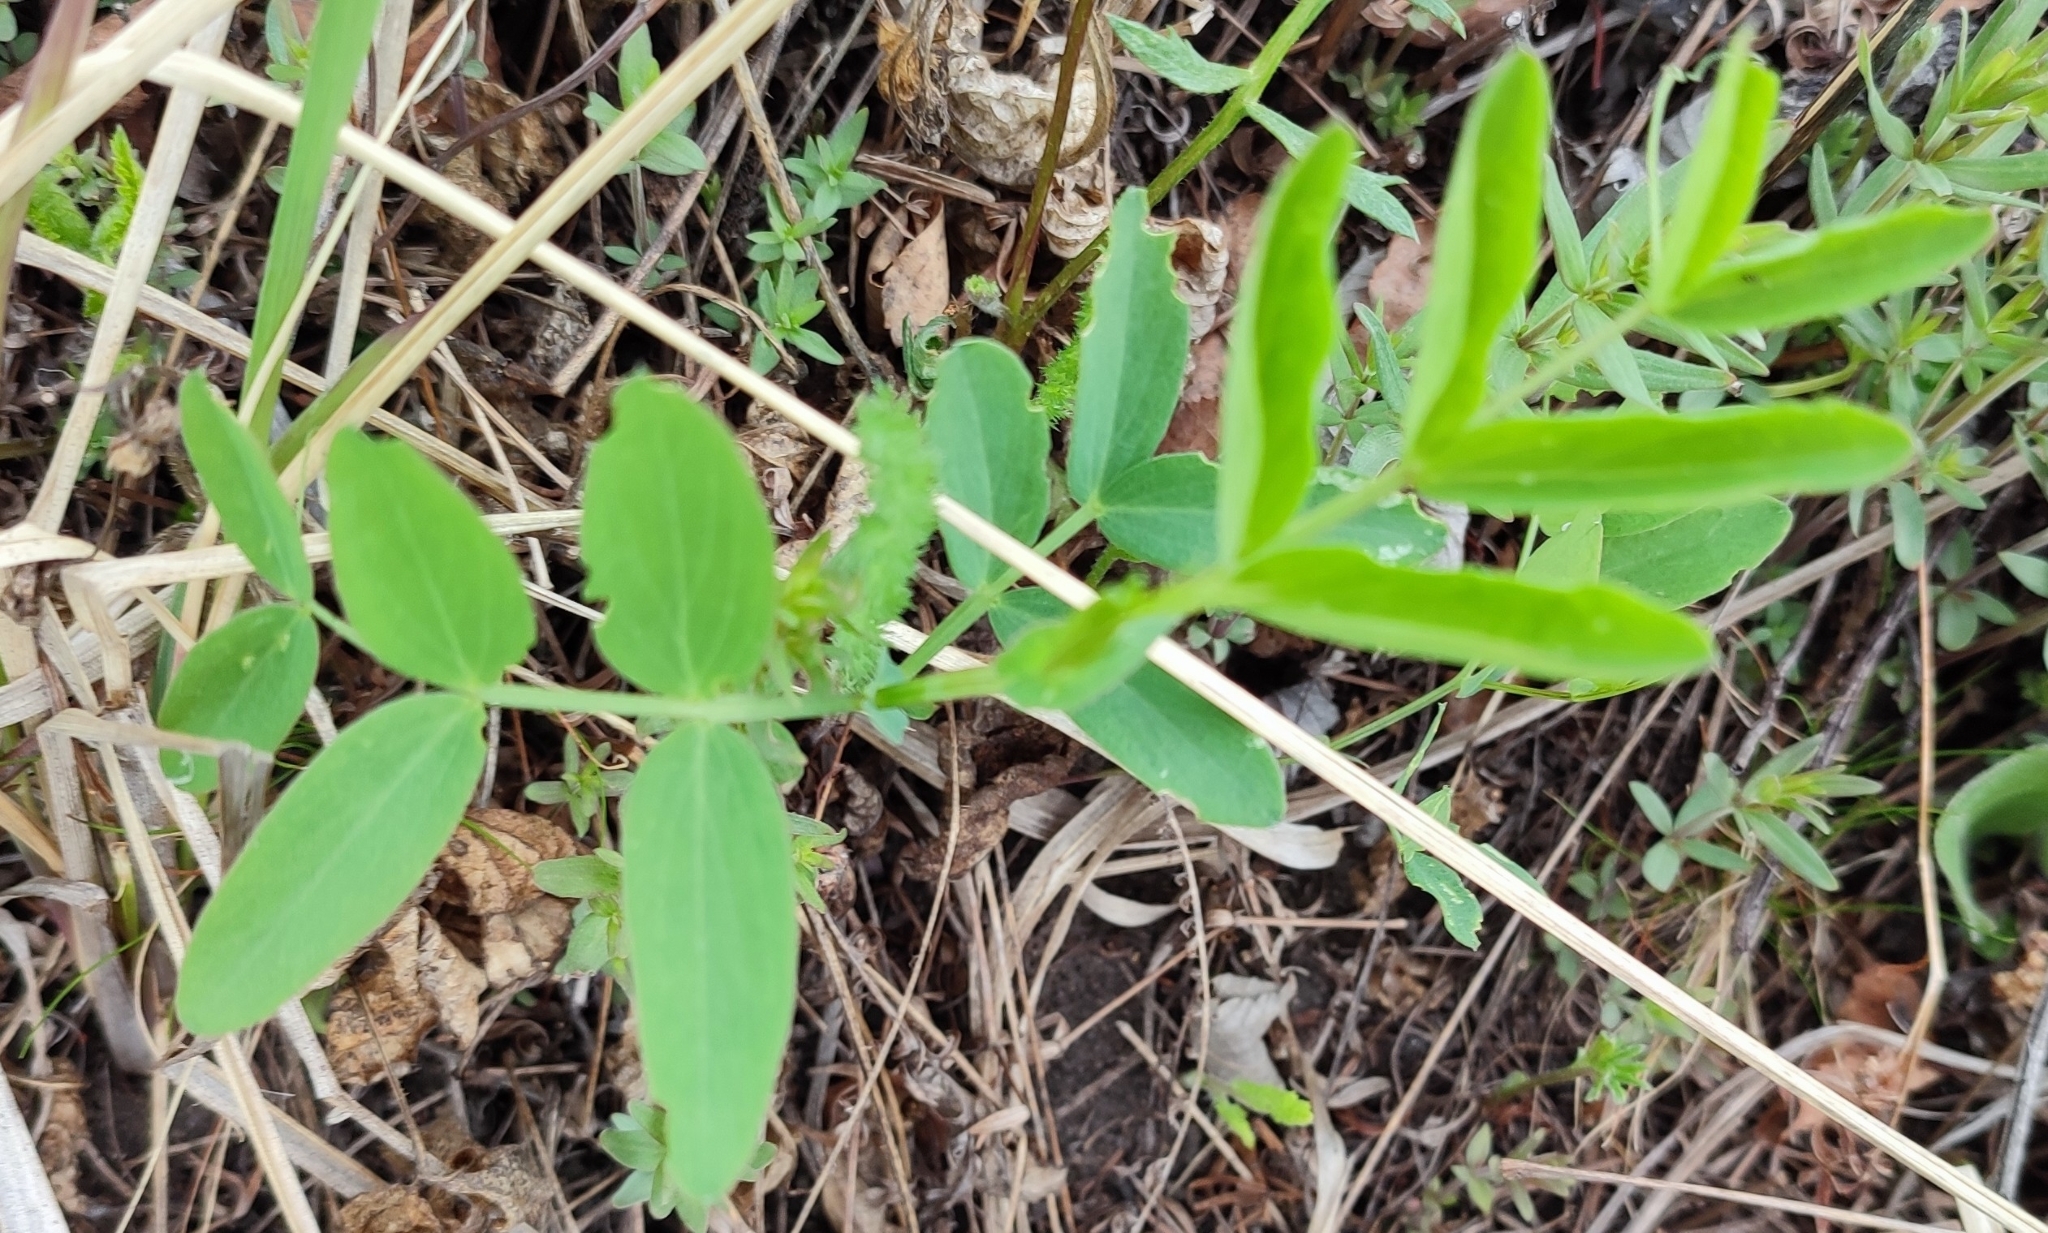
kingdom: Plantae
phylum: Tracheophyta
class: Magnoliopsida
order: Fabales
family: Fabaceae
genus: Lathyrus
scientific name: Lathyrus pisiformis
